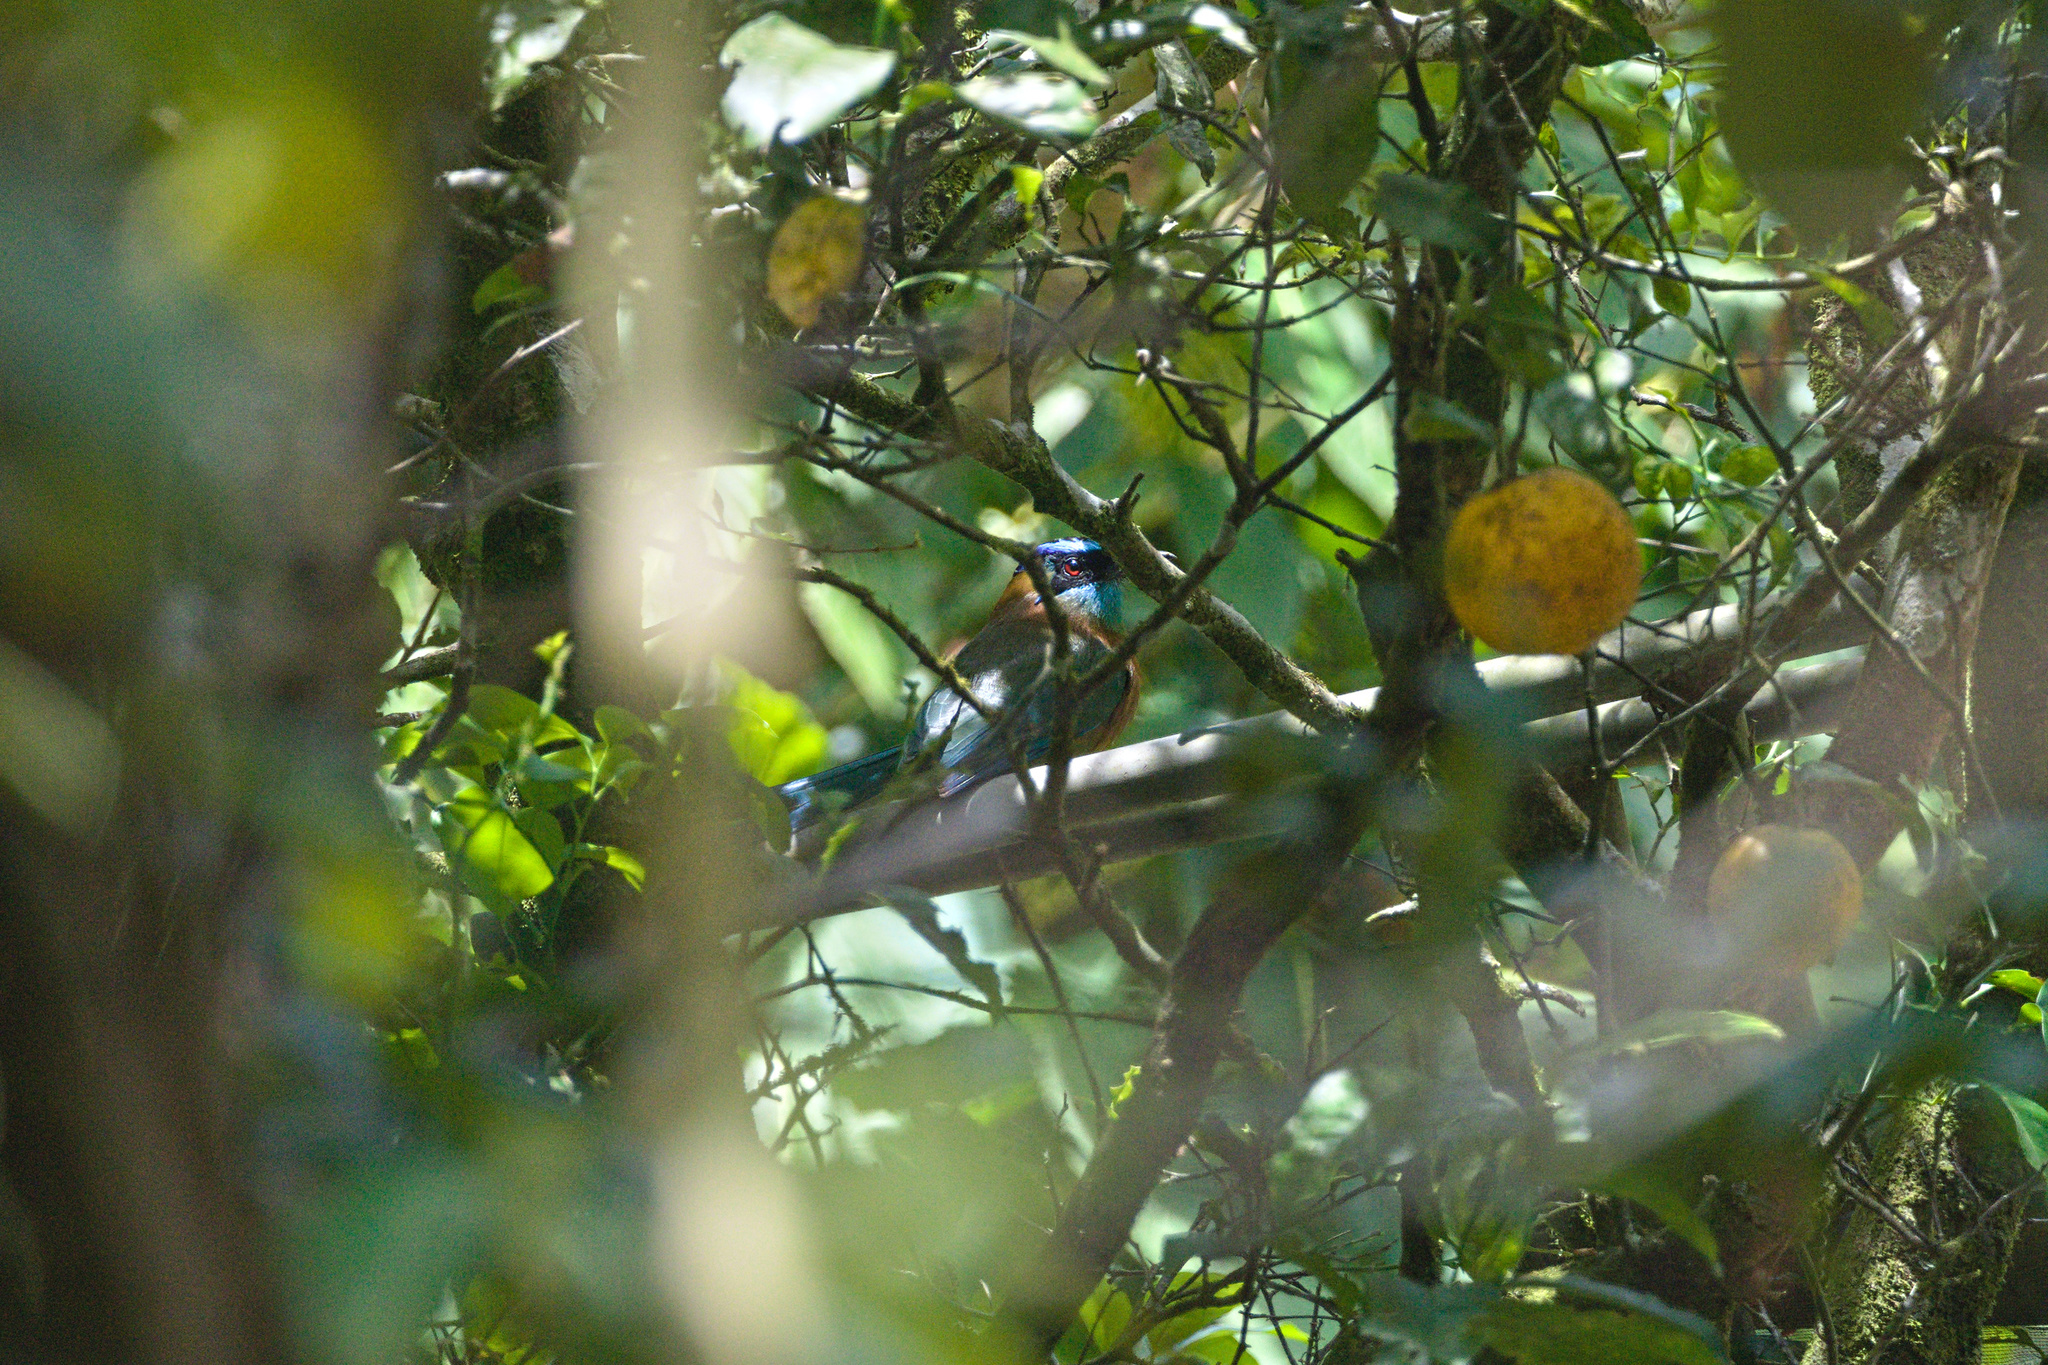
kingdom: Animalia
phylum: Chordata
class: Aves
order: Coraciiformes
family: Momotidae
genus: Momotus
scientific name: Momotus lessonii
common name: Lesson's motmot
